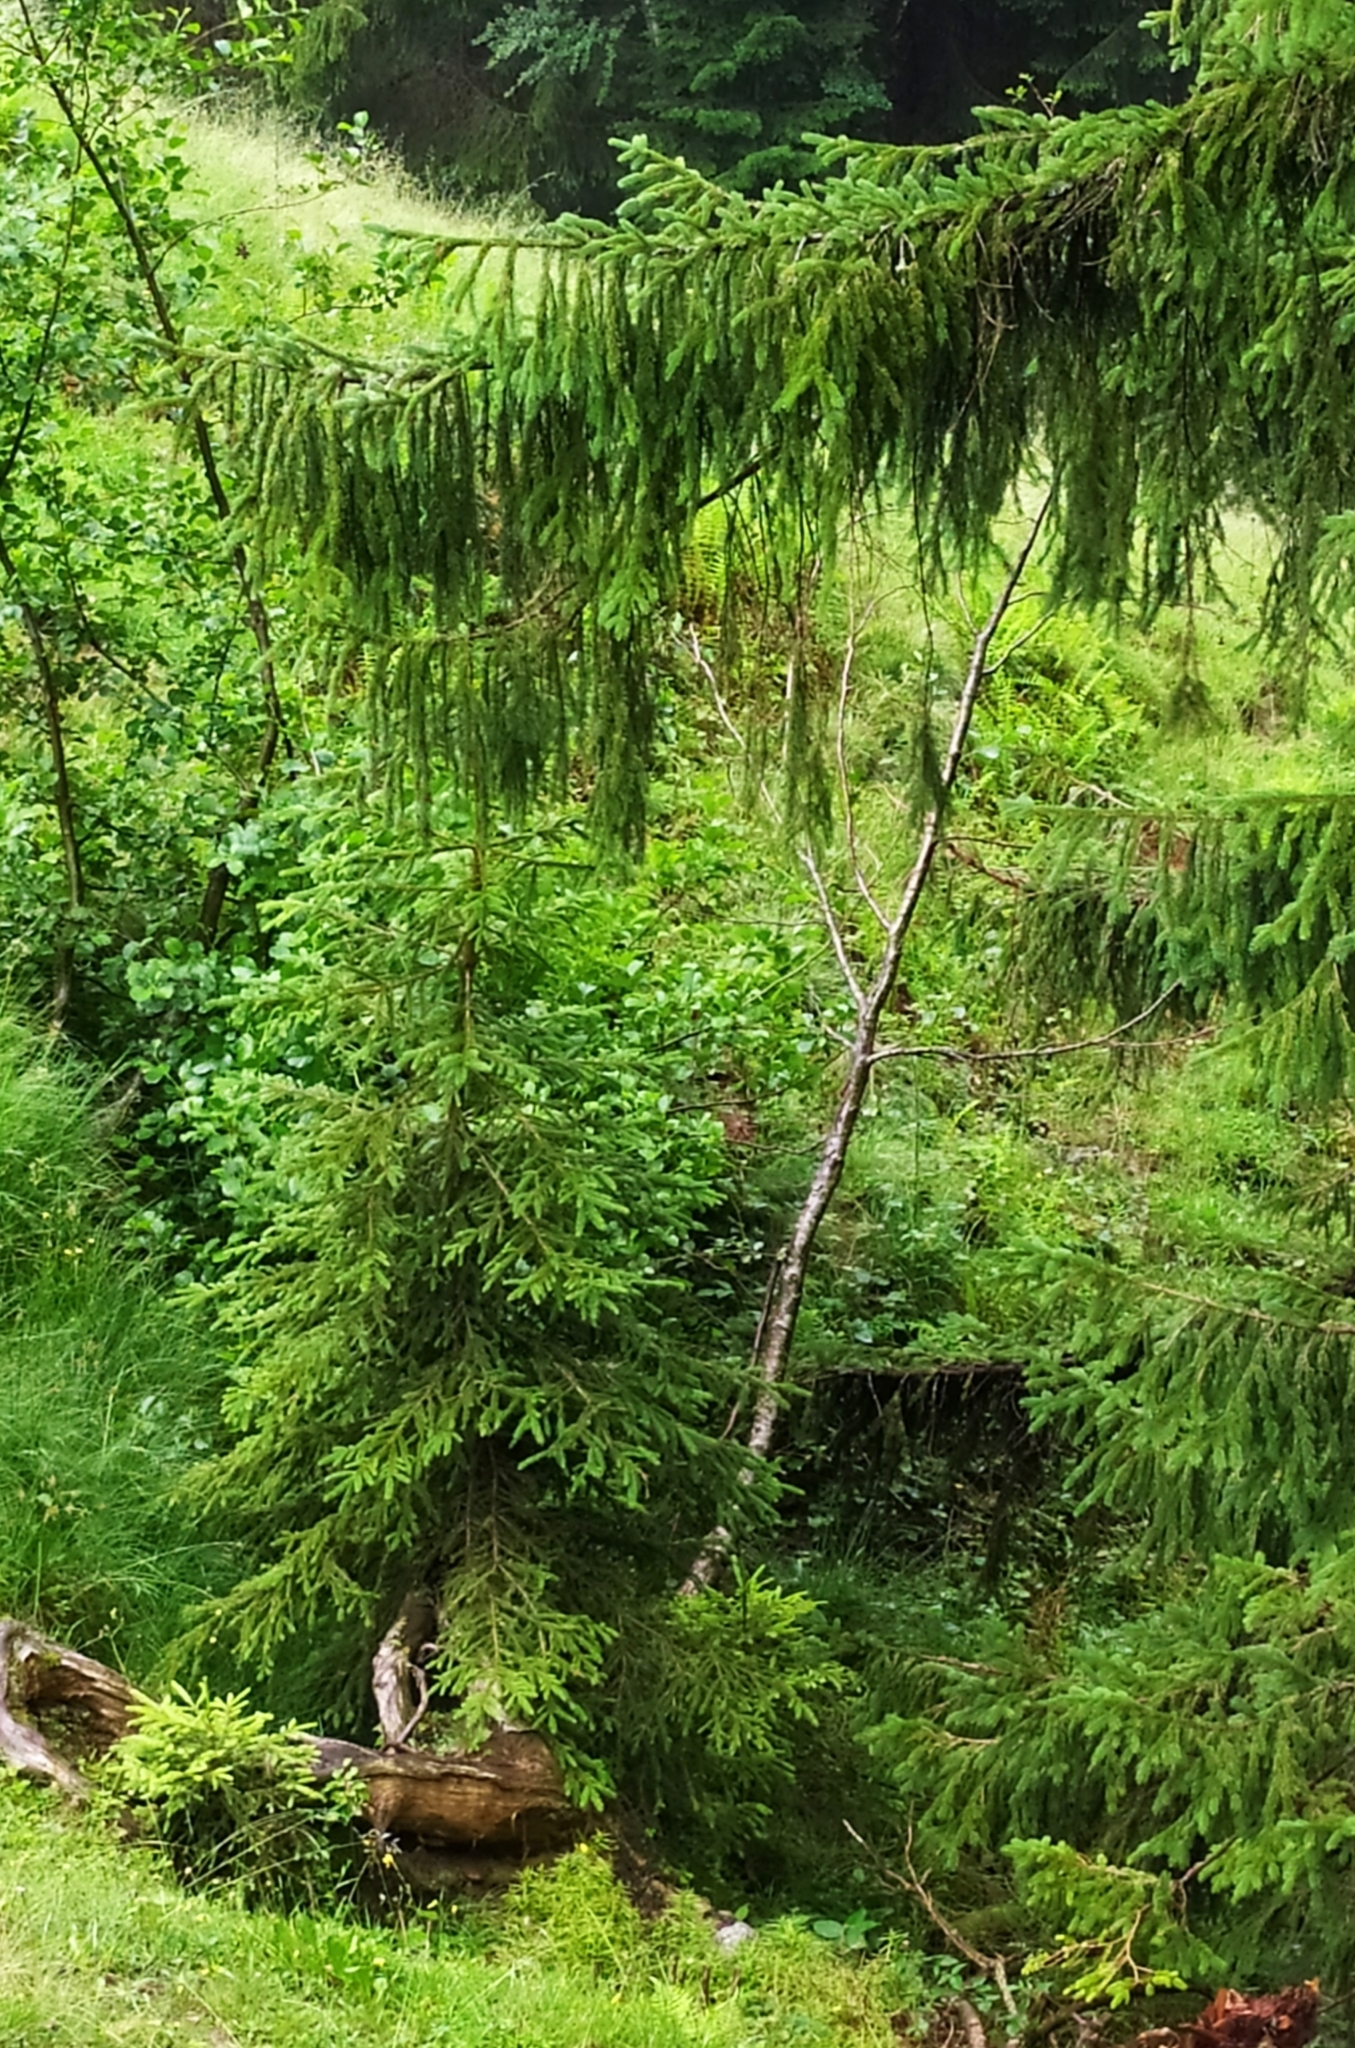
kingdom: Plantae
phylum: Tracheophyta
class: Pinopsida
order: Pinales
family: Pinaceae
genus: Picea
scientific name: Picea abies
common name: Norway spruce
